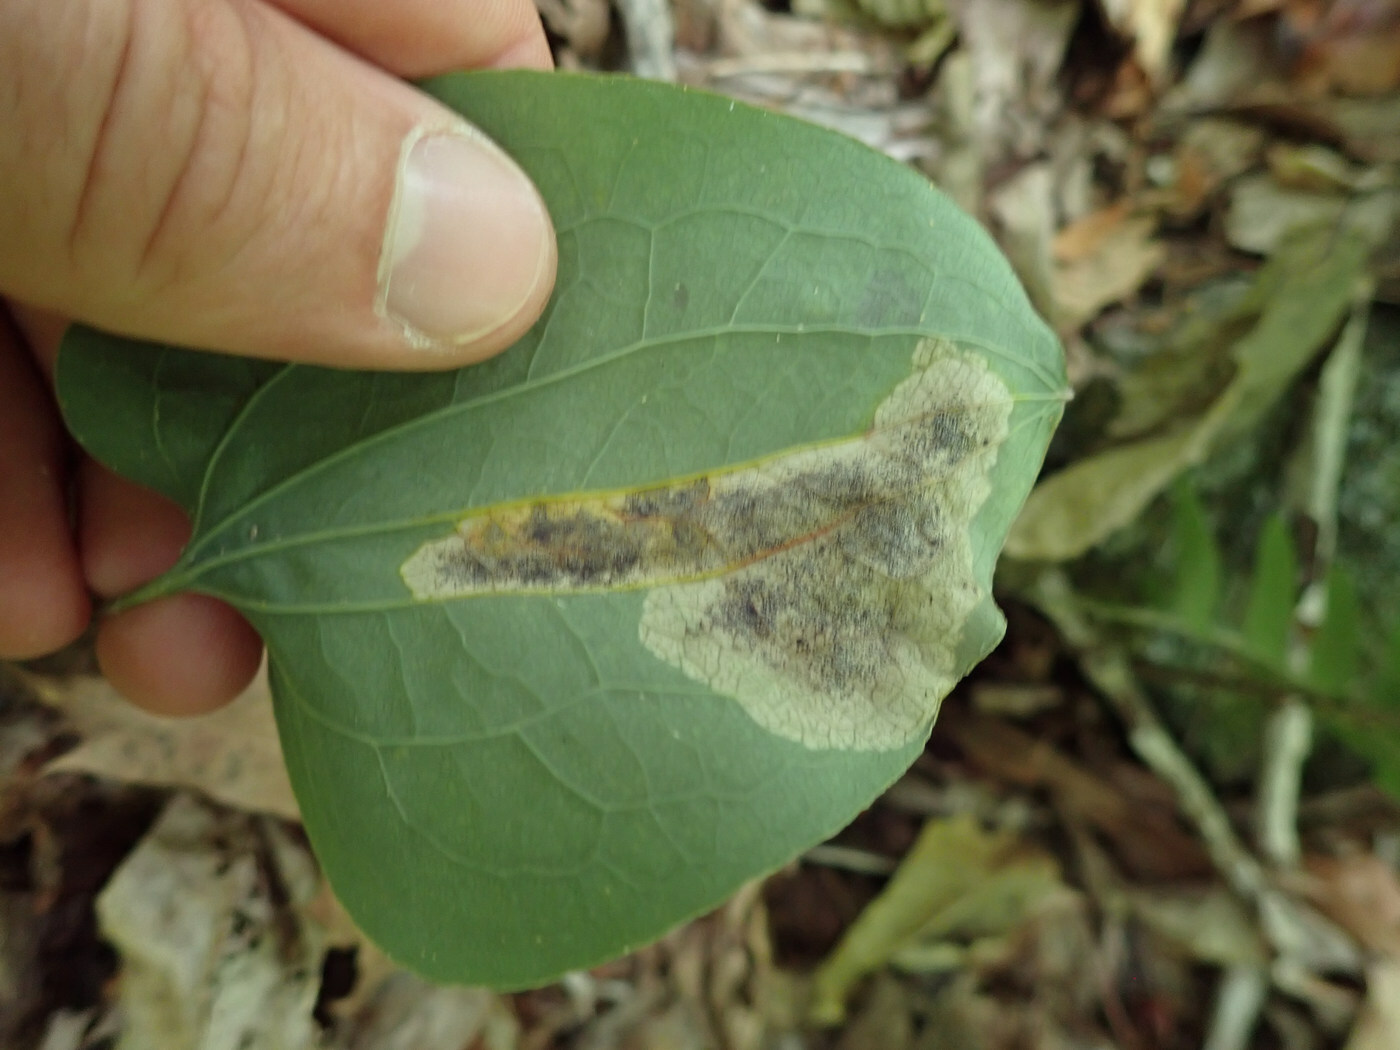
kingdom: Animalia
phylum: Arthropoda
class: Insecta
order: Lepidoptera
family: Lyonetiidae
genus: Leucoptera
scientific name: Leucoptera
